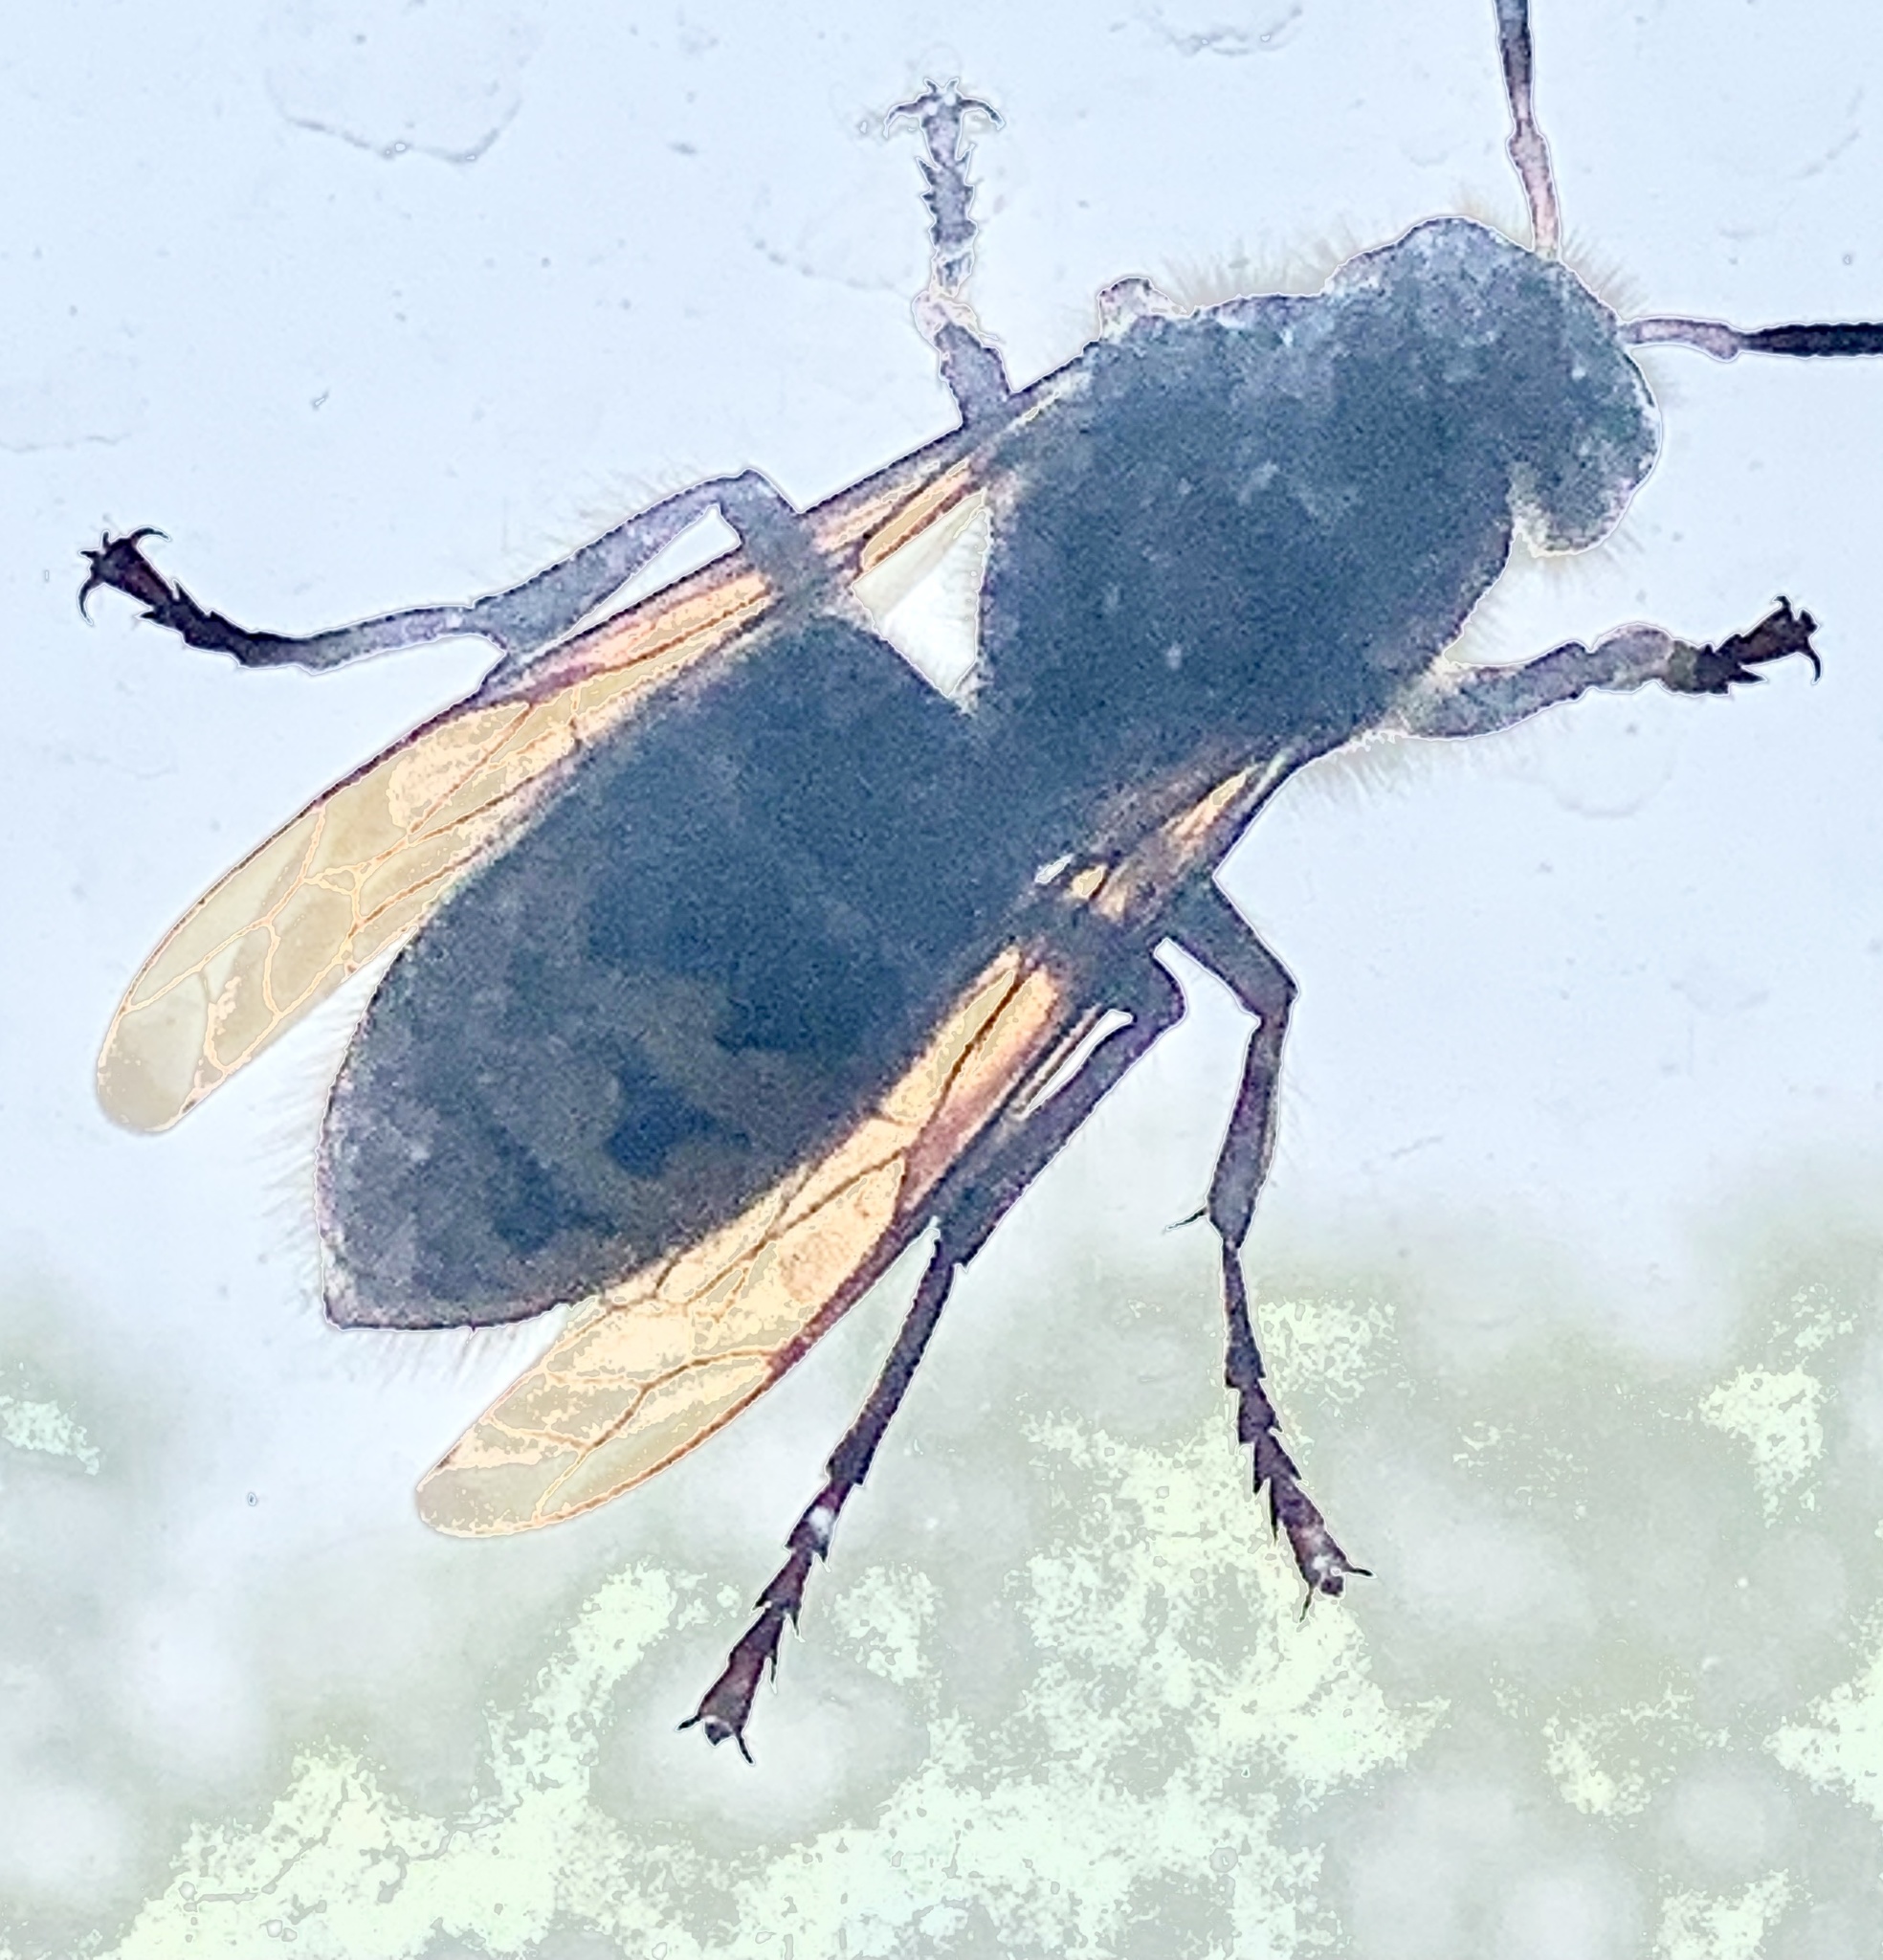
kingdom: Animalia
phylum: Arthropoda
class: Insecta
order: Hymenoptera
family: Vespidae
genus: Vespa
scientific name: Vespa crabro
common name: Hornet
